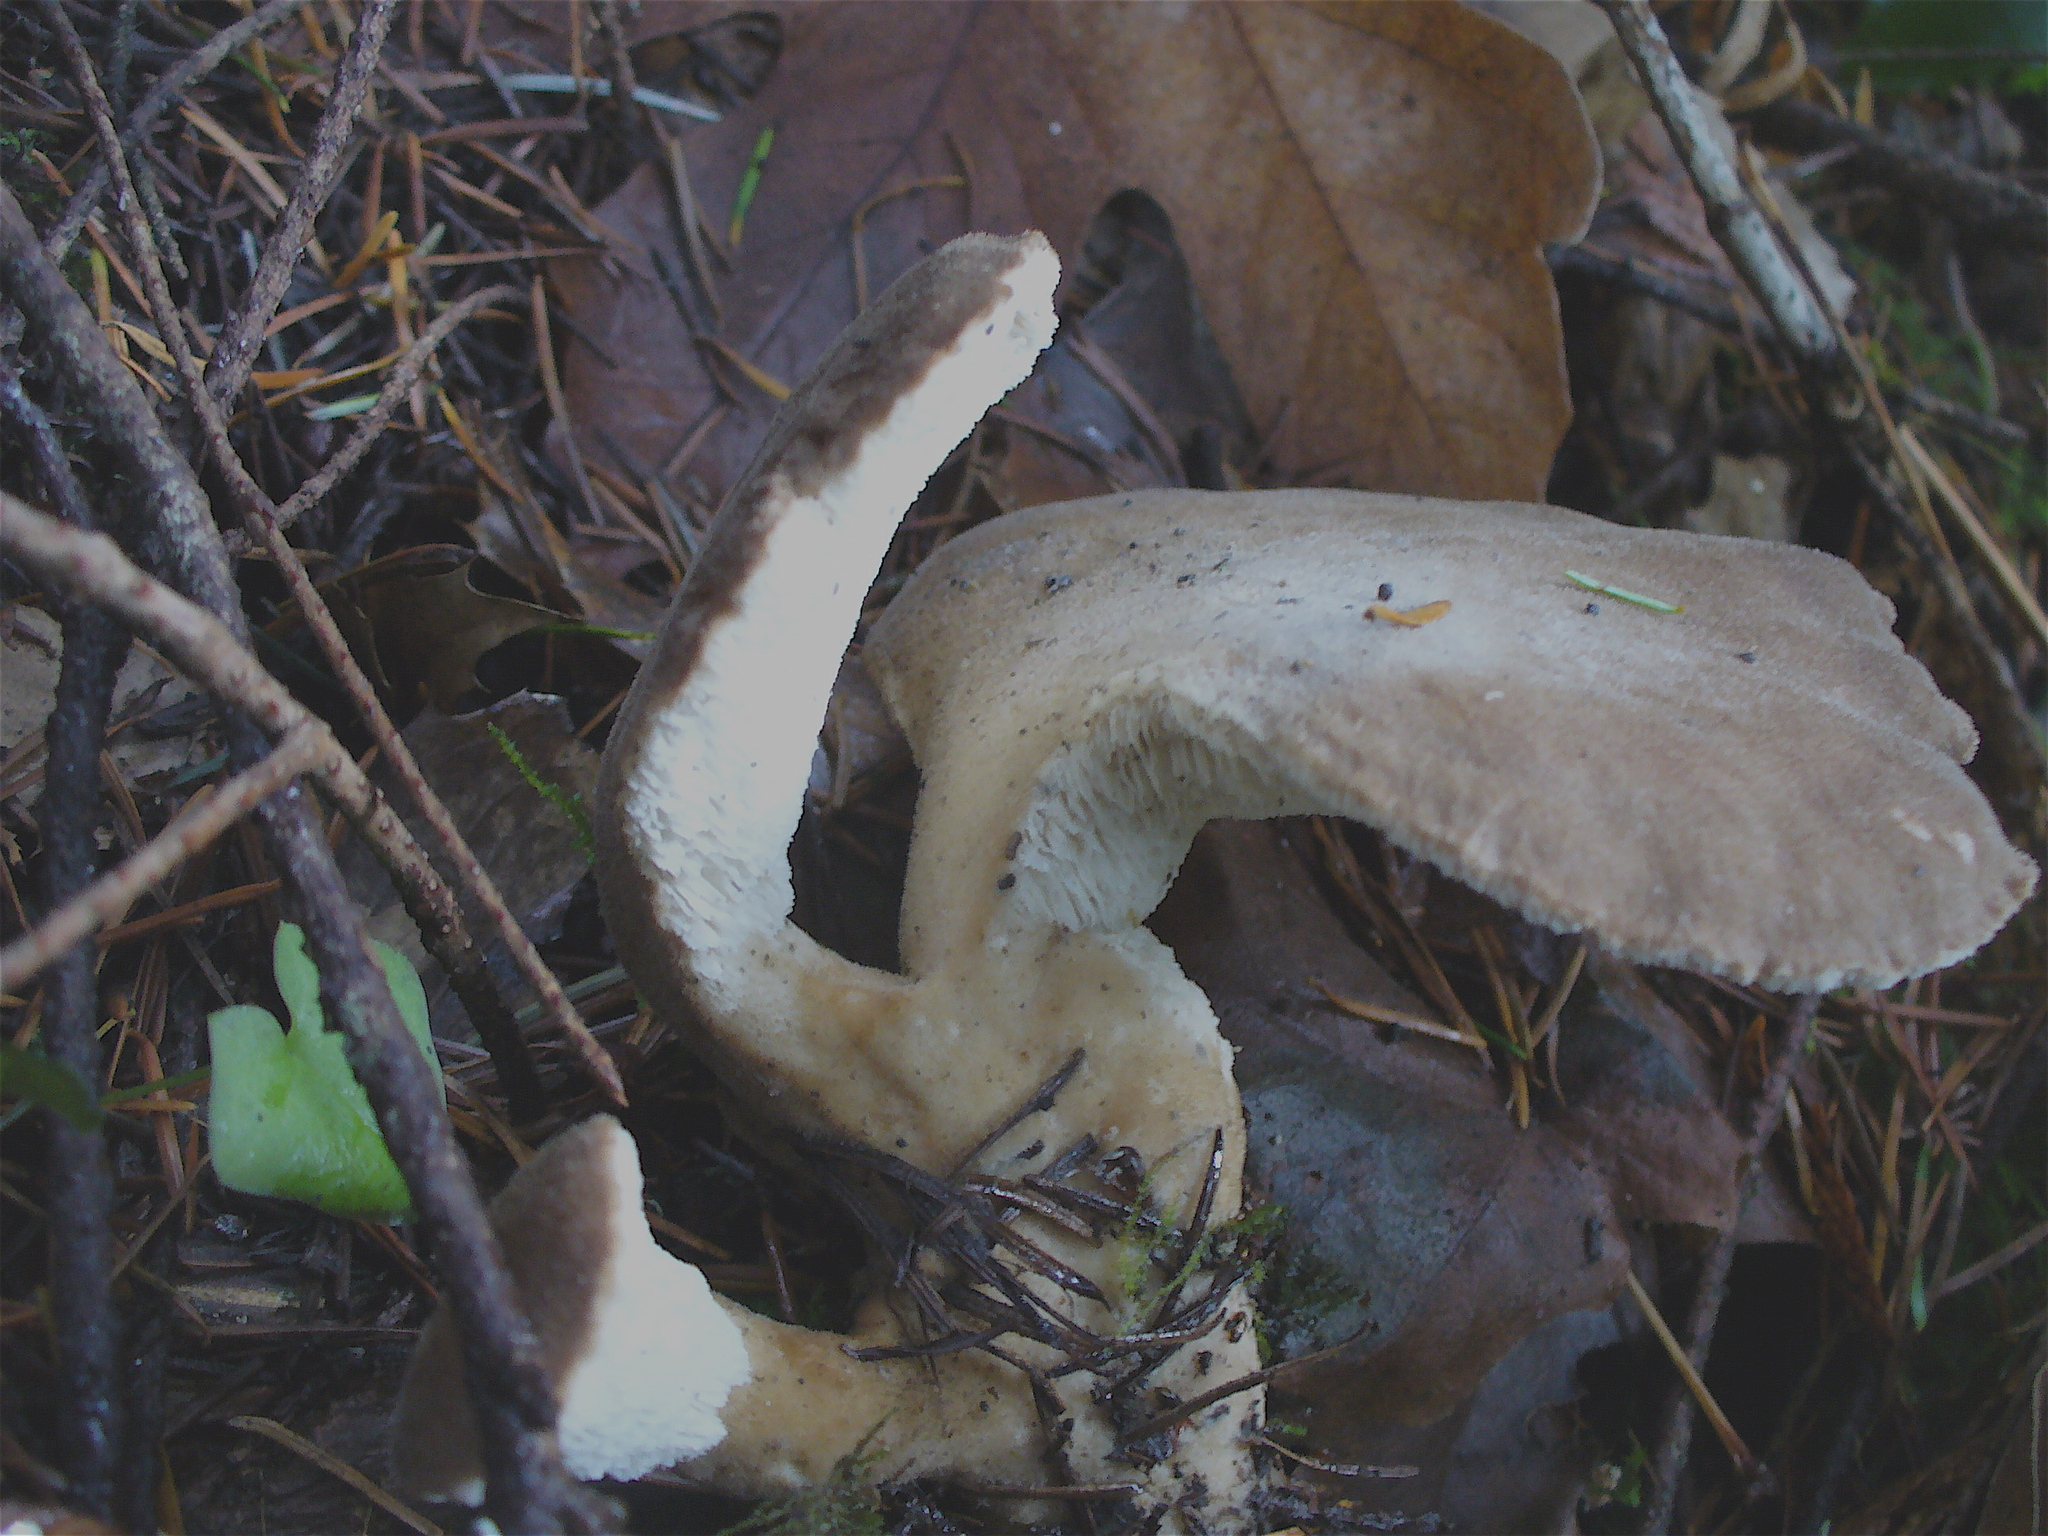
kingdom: Fungi
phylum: Basidiomycota
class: Agaricomycetes
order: Polyporales
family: Dacryobolaceae
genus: Jahnoporus
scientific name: Jahnoporus hirtus
